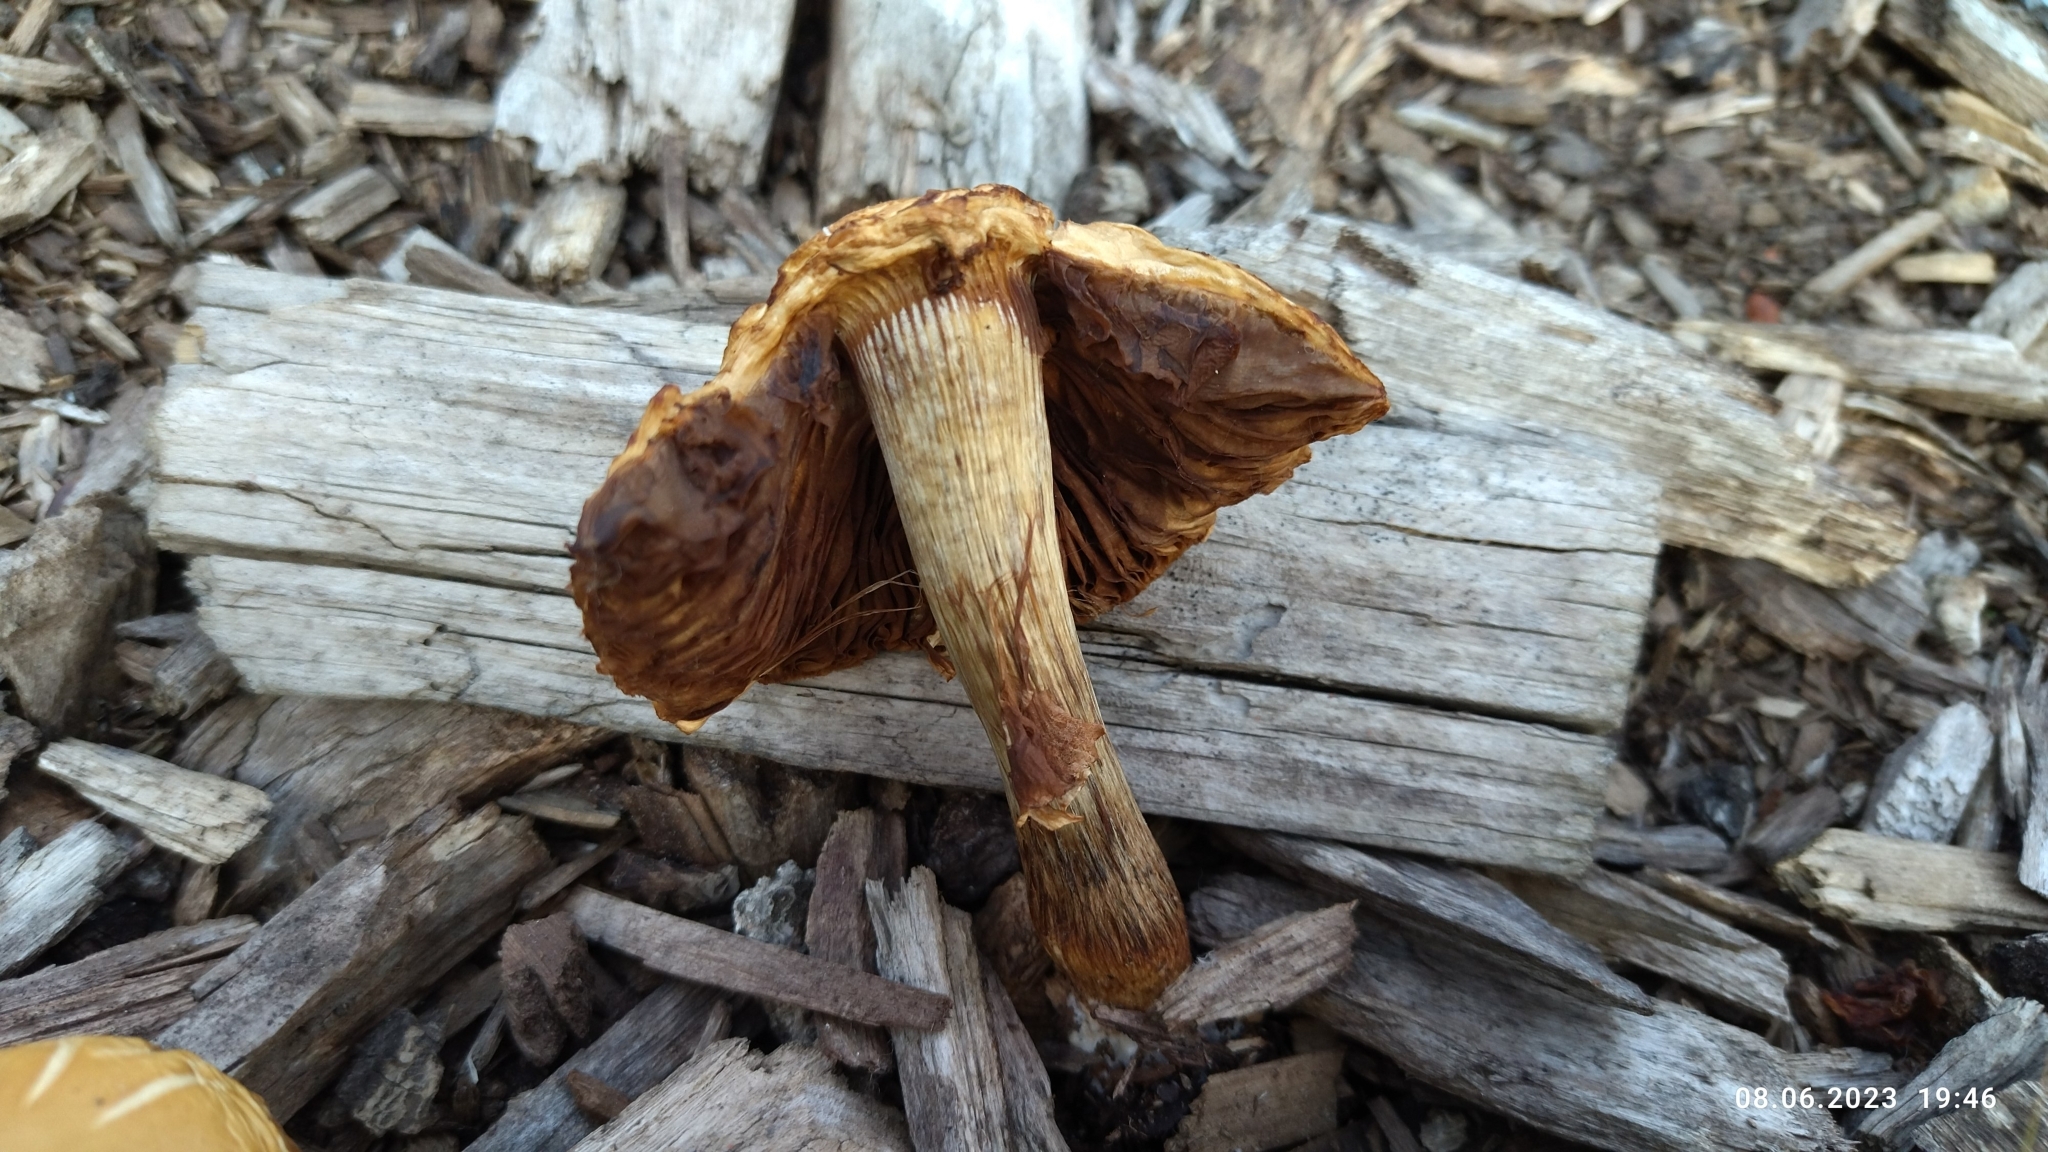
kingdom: Fungi
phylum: Basidiomycota
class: Agaricomycetes
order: Agaricales
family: Strophariaceae
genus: Agrocybe
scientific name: Agrocybe praecox
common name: Spring fieldcap
